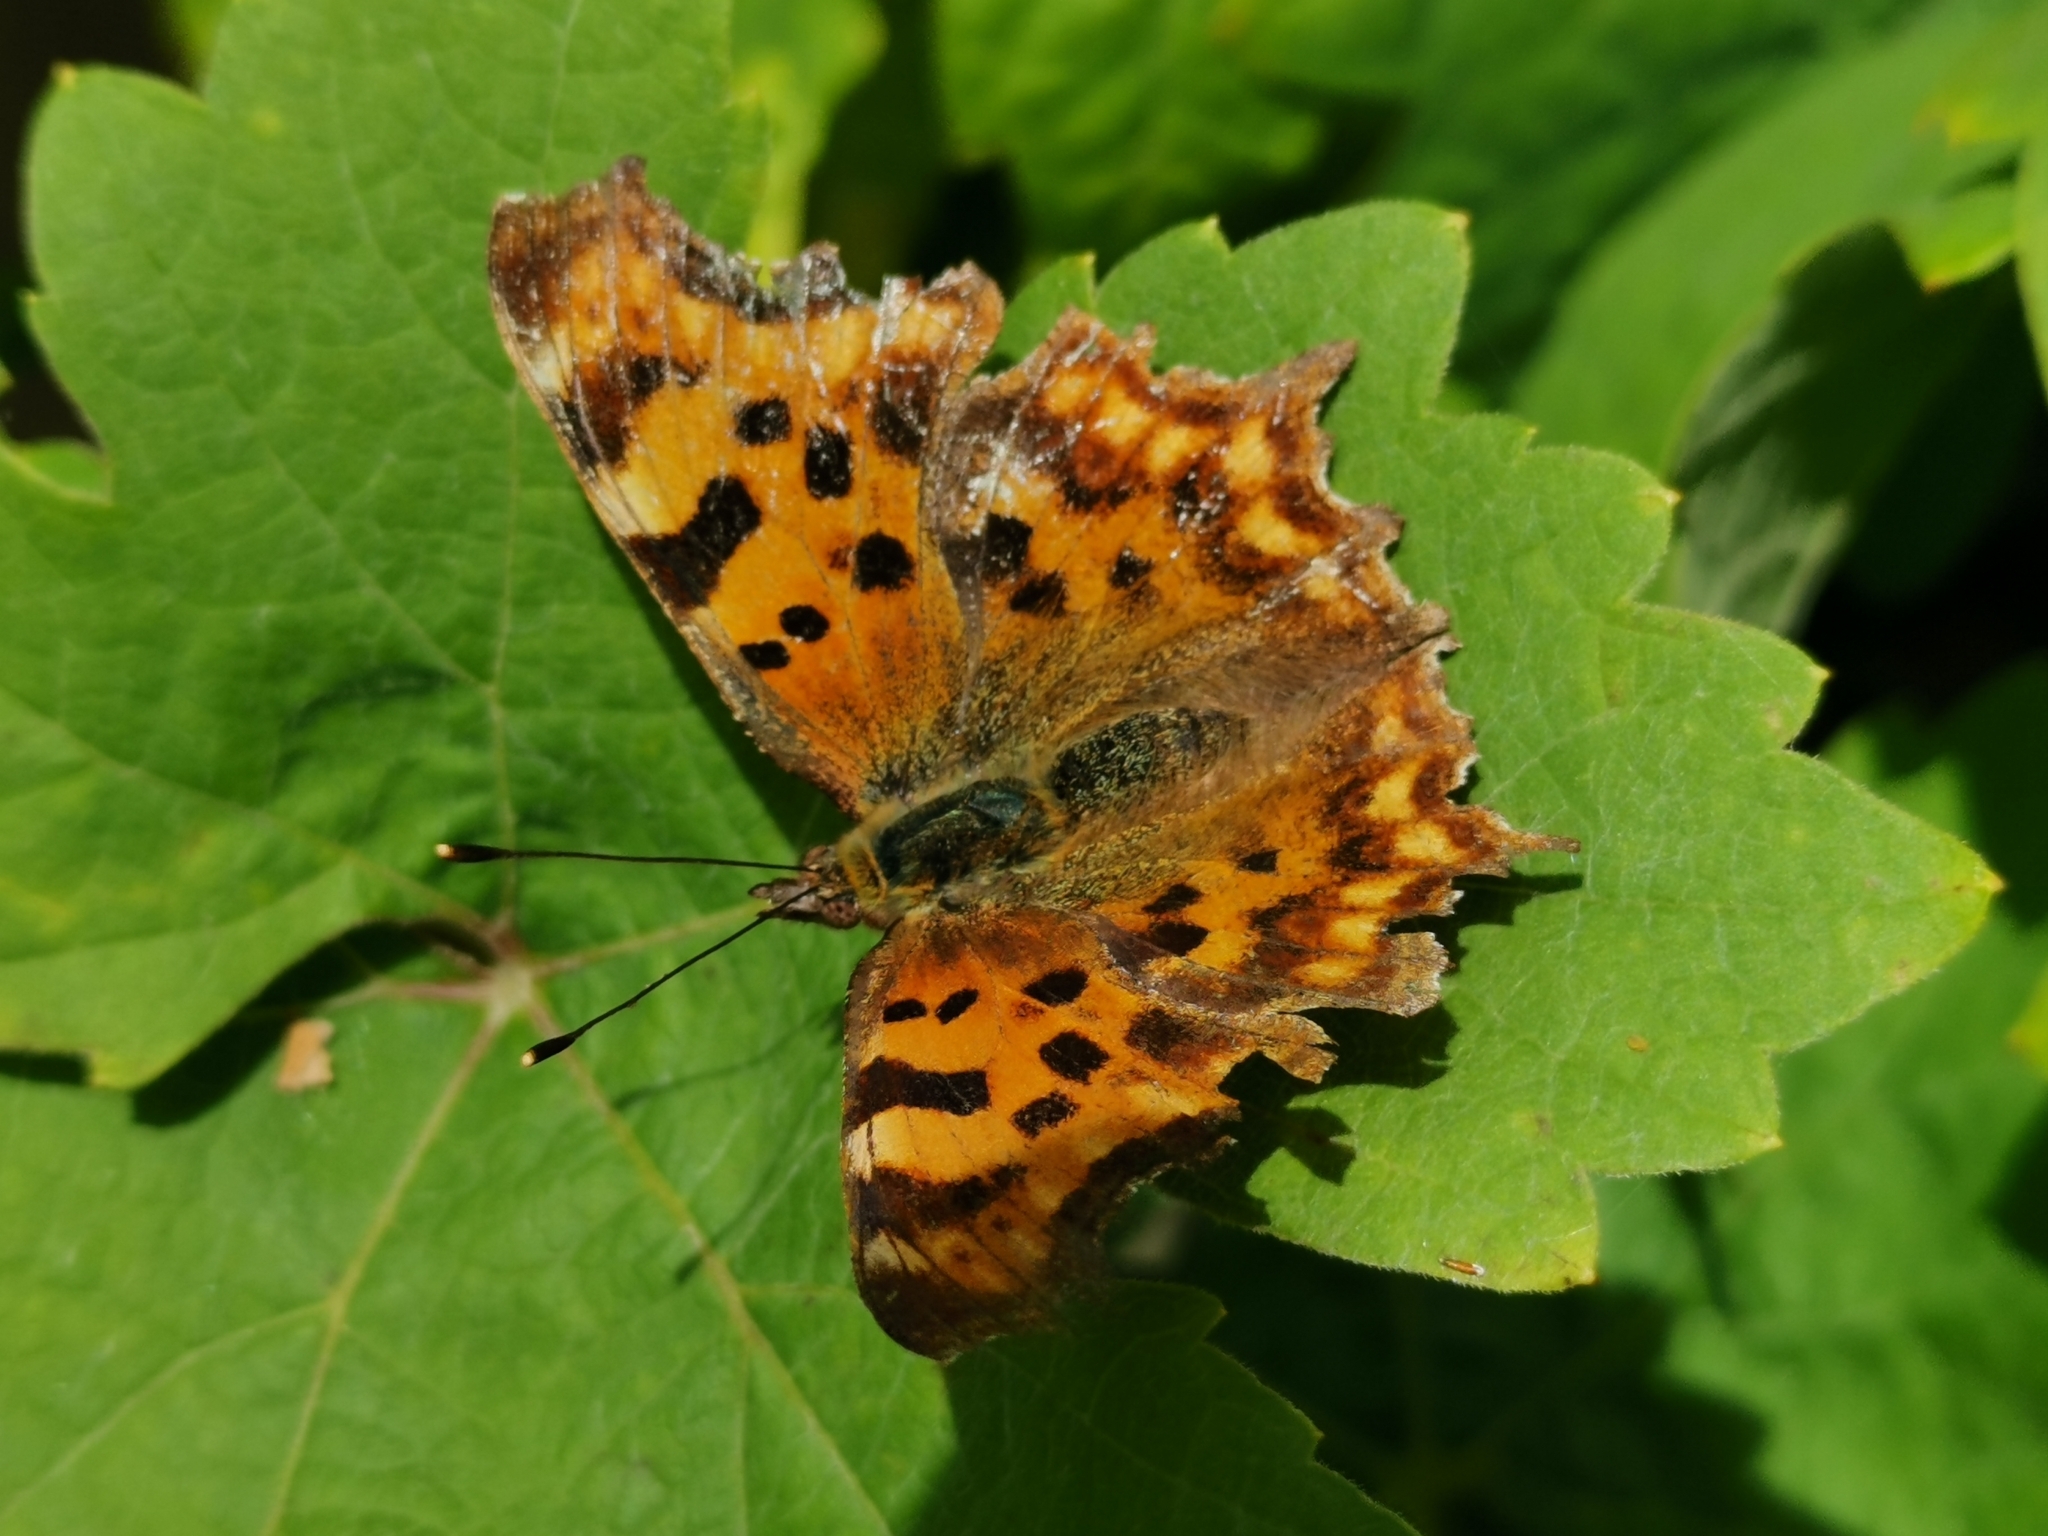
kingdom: Animalia
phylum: Arthropoda
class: Insecta
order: Lepidoptera
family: Nymphalidae
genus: Polygonia
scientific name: Polygonia c-album
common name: Comma
